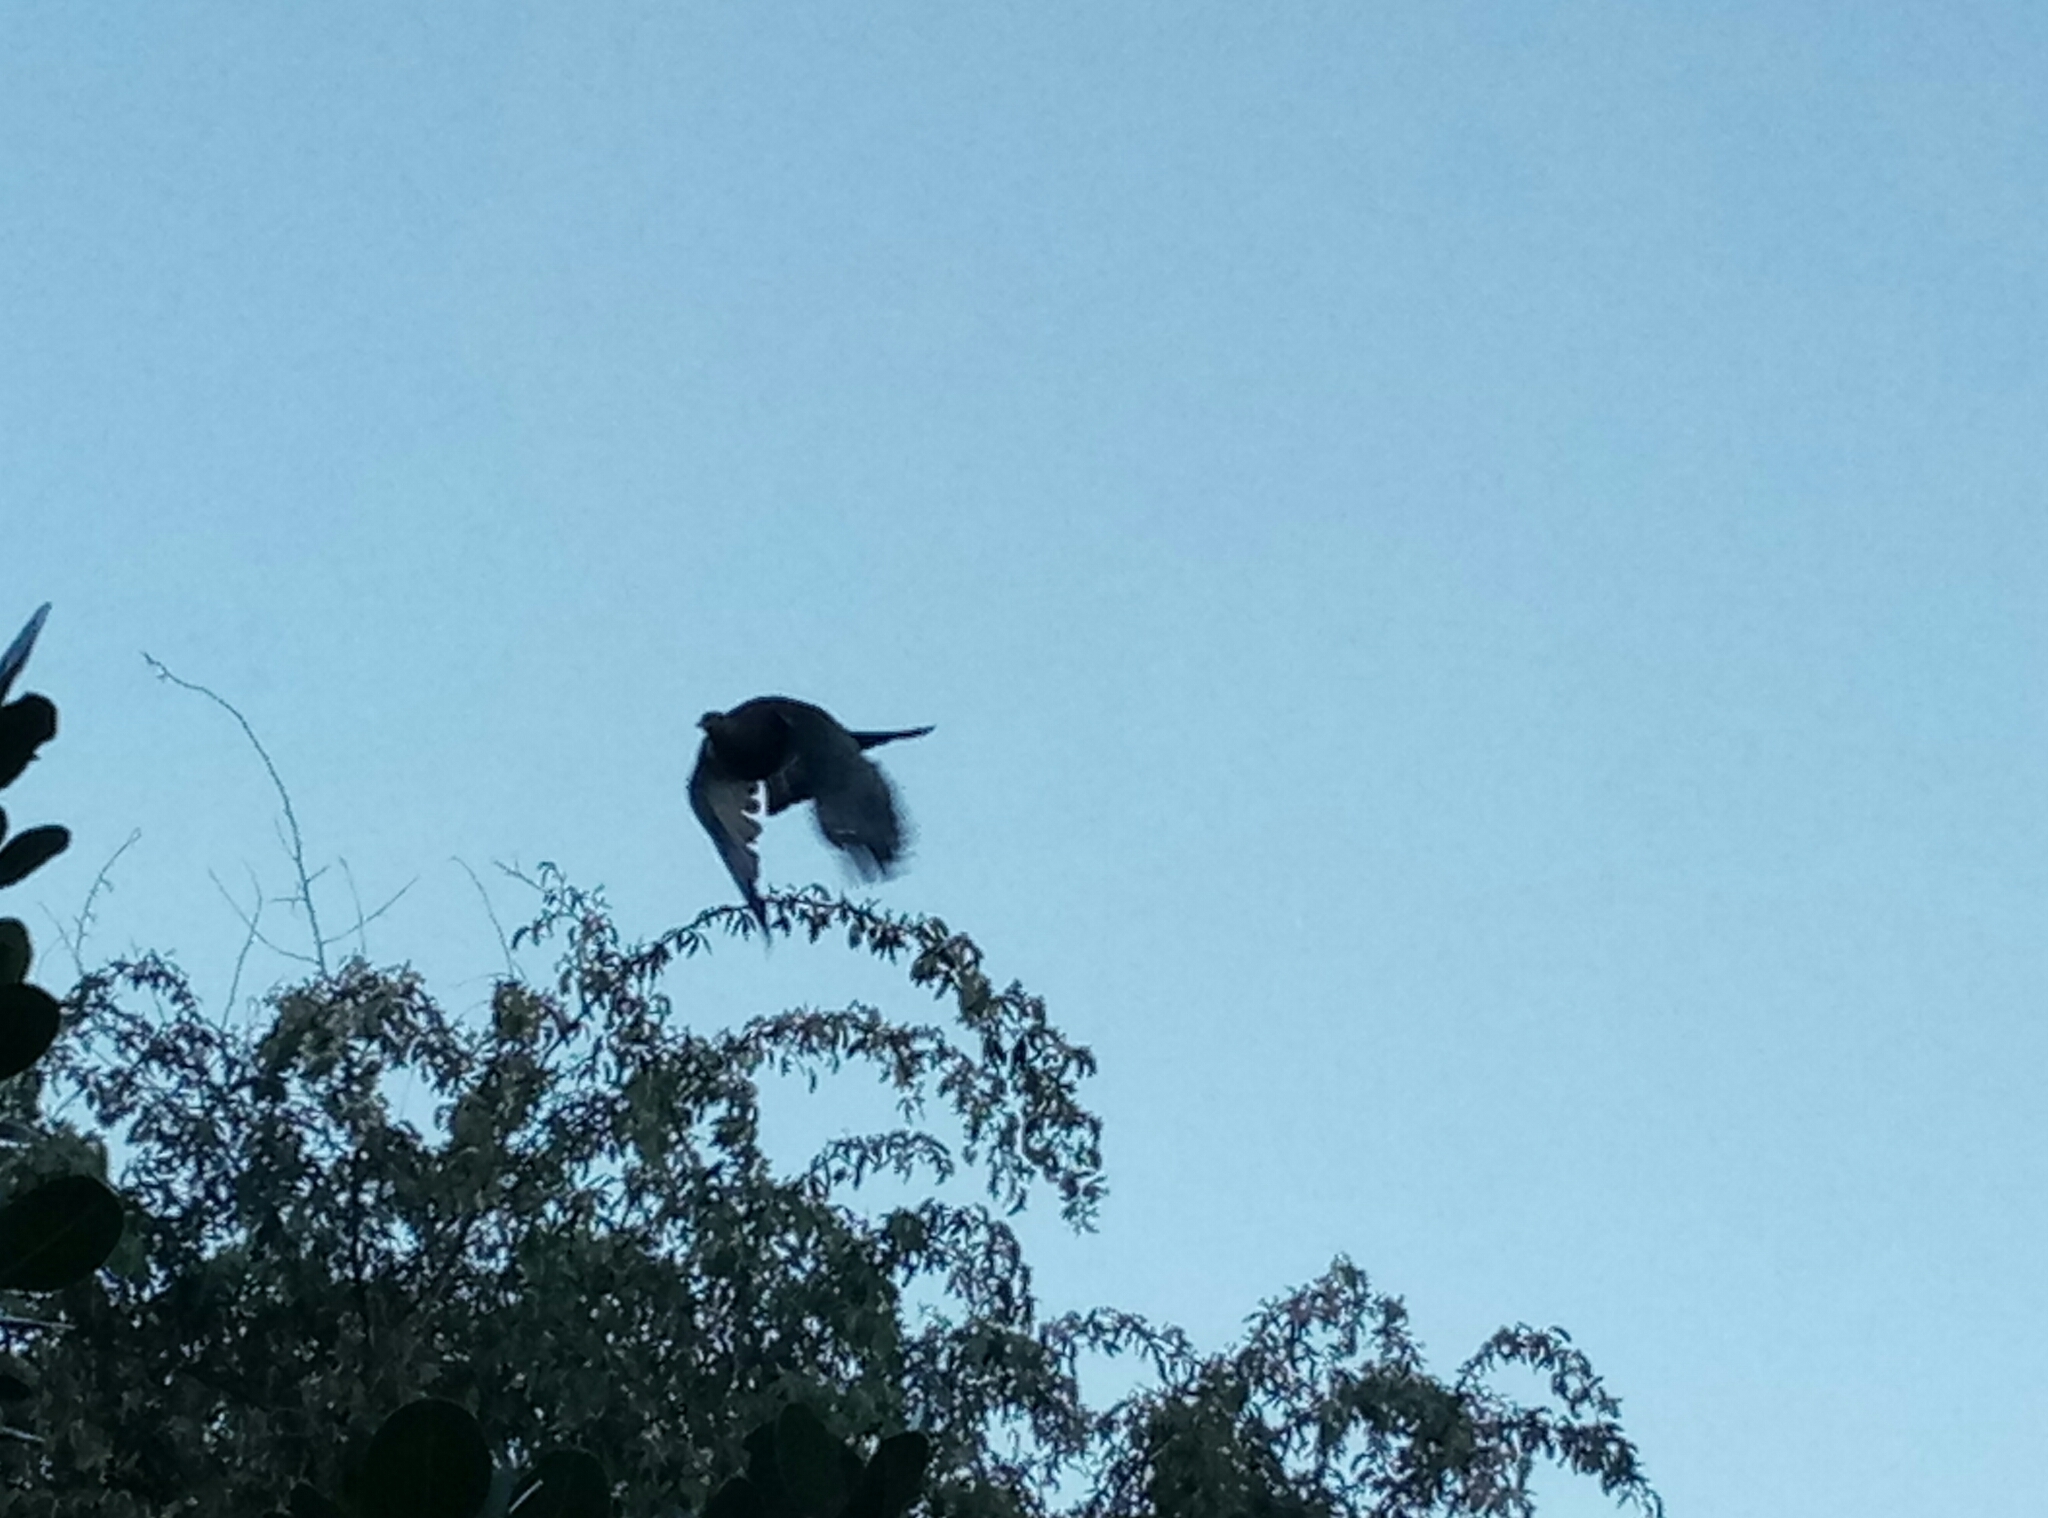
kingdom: Animalia
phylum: Chordata
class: Aves
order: Columbiformes
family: Columbidae
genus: Hemiphaga
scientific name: Hemiphaga novaeseelandiae
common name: New zealand pigeon
